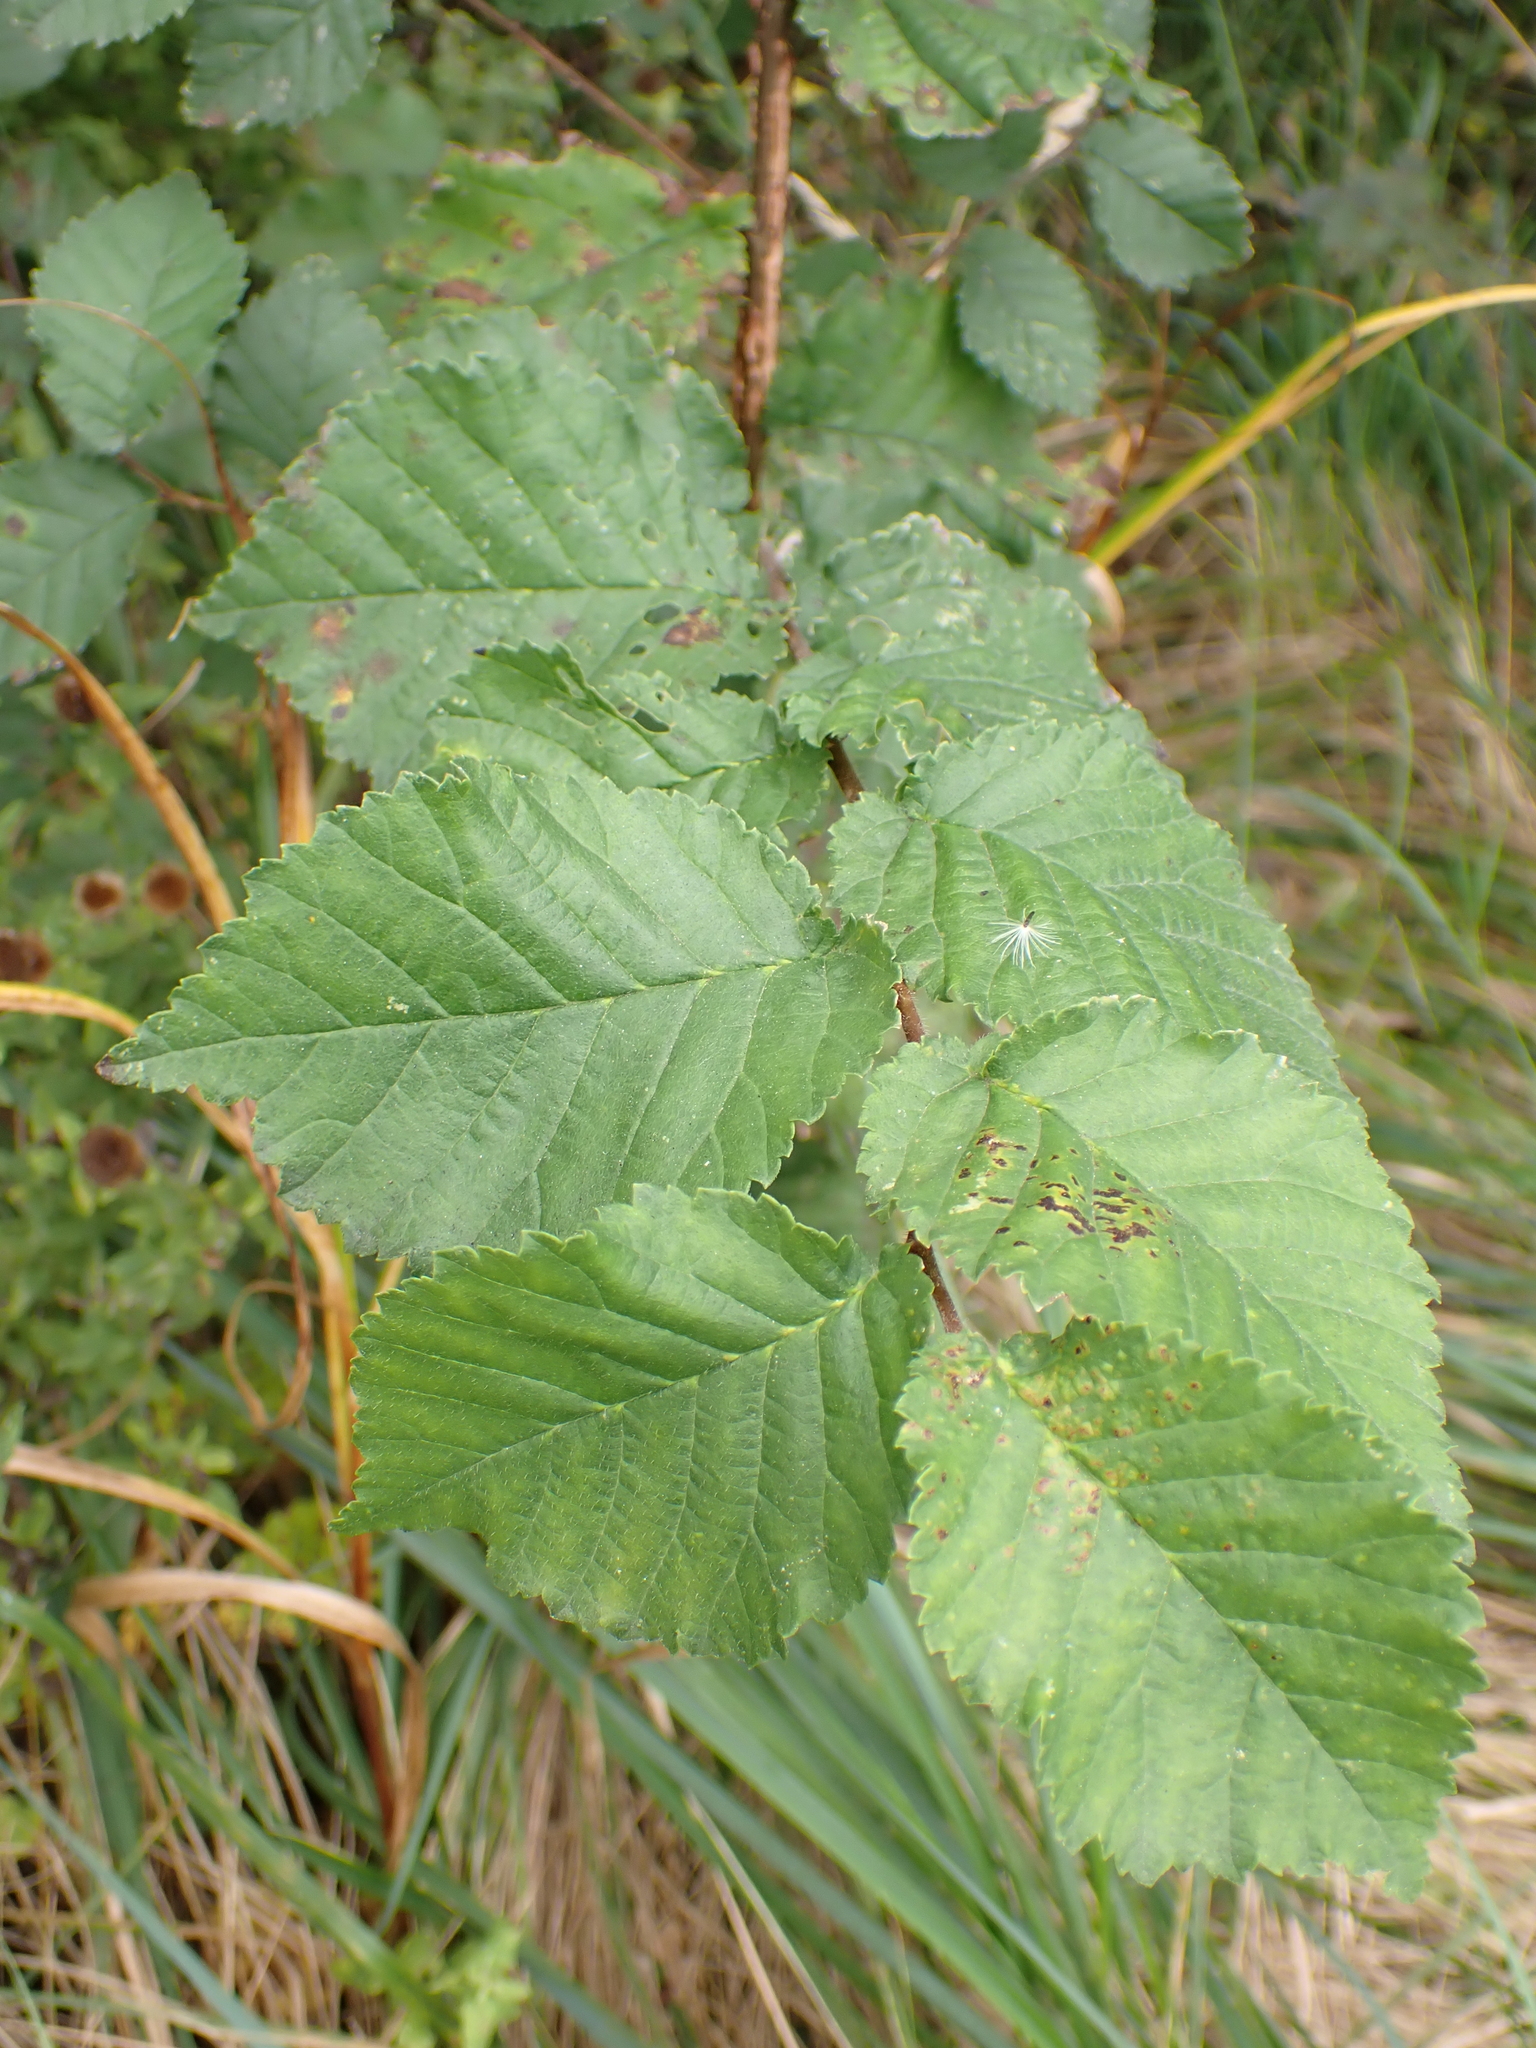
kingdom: Plantae
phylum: Tracheophyta
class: Magnoliopsida
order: Rosales
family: Ulmaceae
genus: Ulmus
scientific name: Ulmus minor
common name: Small-leaved elm
